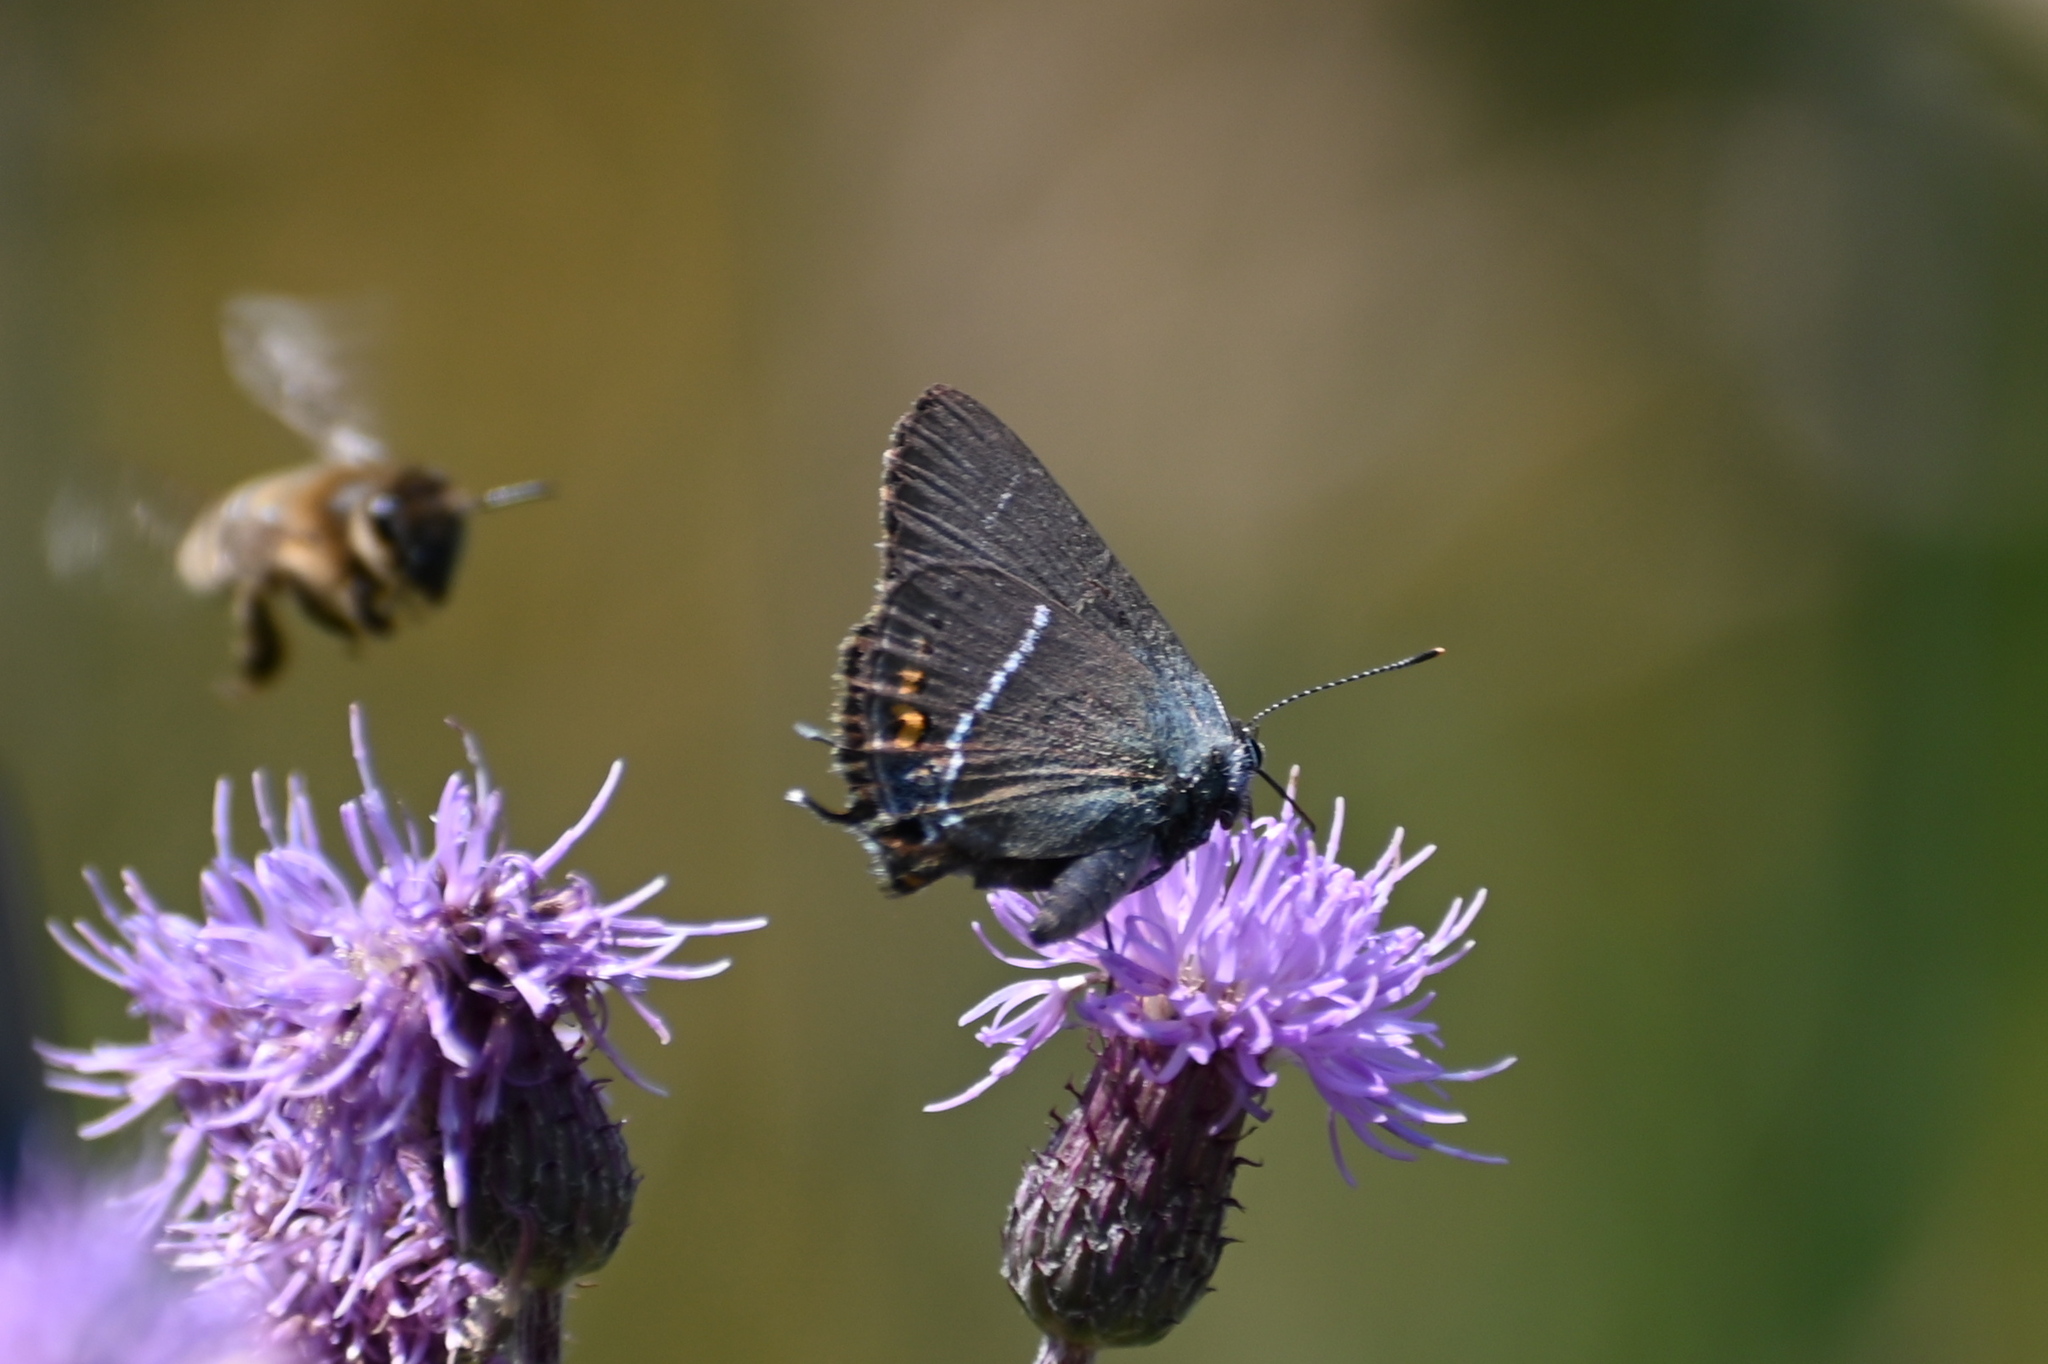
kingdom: Animalia
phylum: Arthropoda
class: Insecta
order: Lepidoptera
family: Lycaenidae
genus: Tuttiola
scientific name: Tuttiola spini
